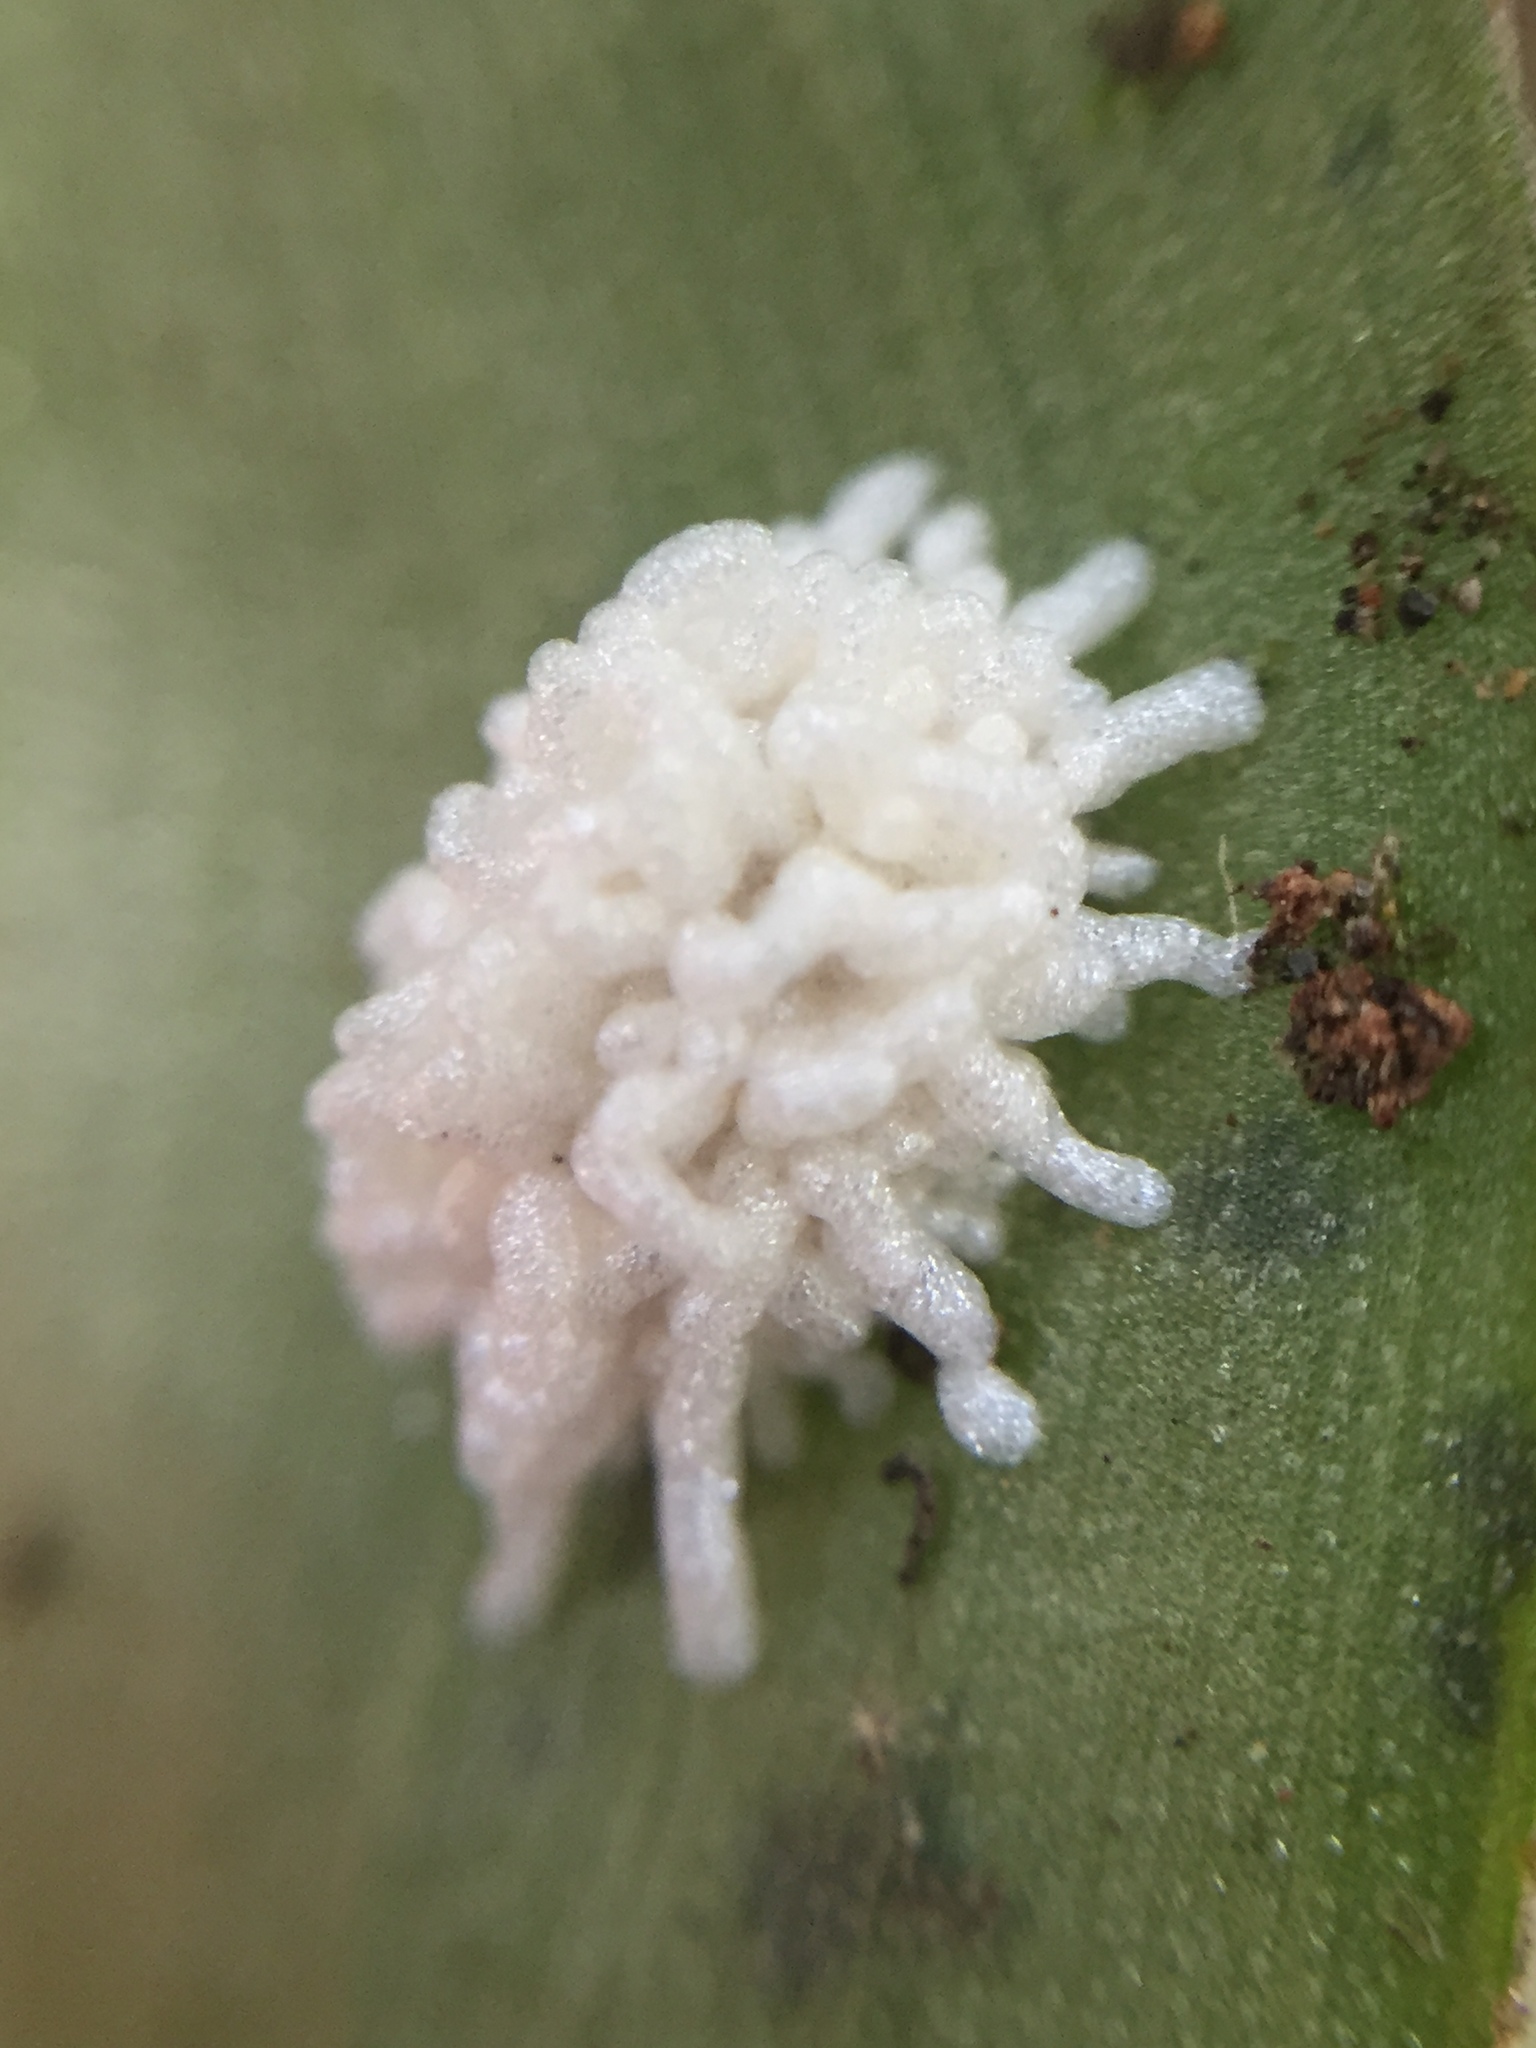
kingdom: Animalia
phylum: Arthropoda
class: Insecta
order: Coleoptera
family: Chrysomelidae
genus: Neolema
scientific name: Neolema ogloblini
